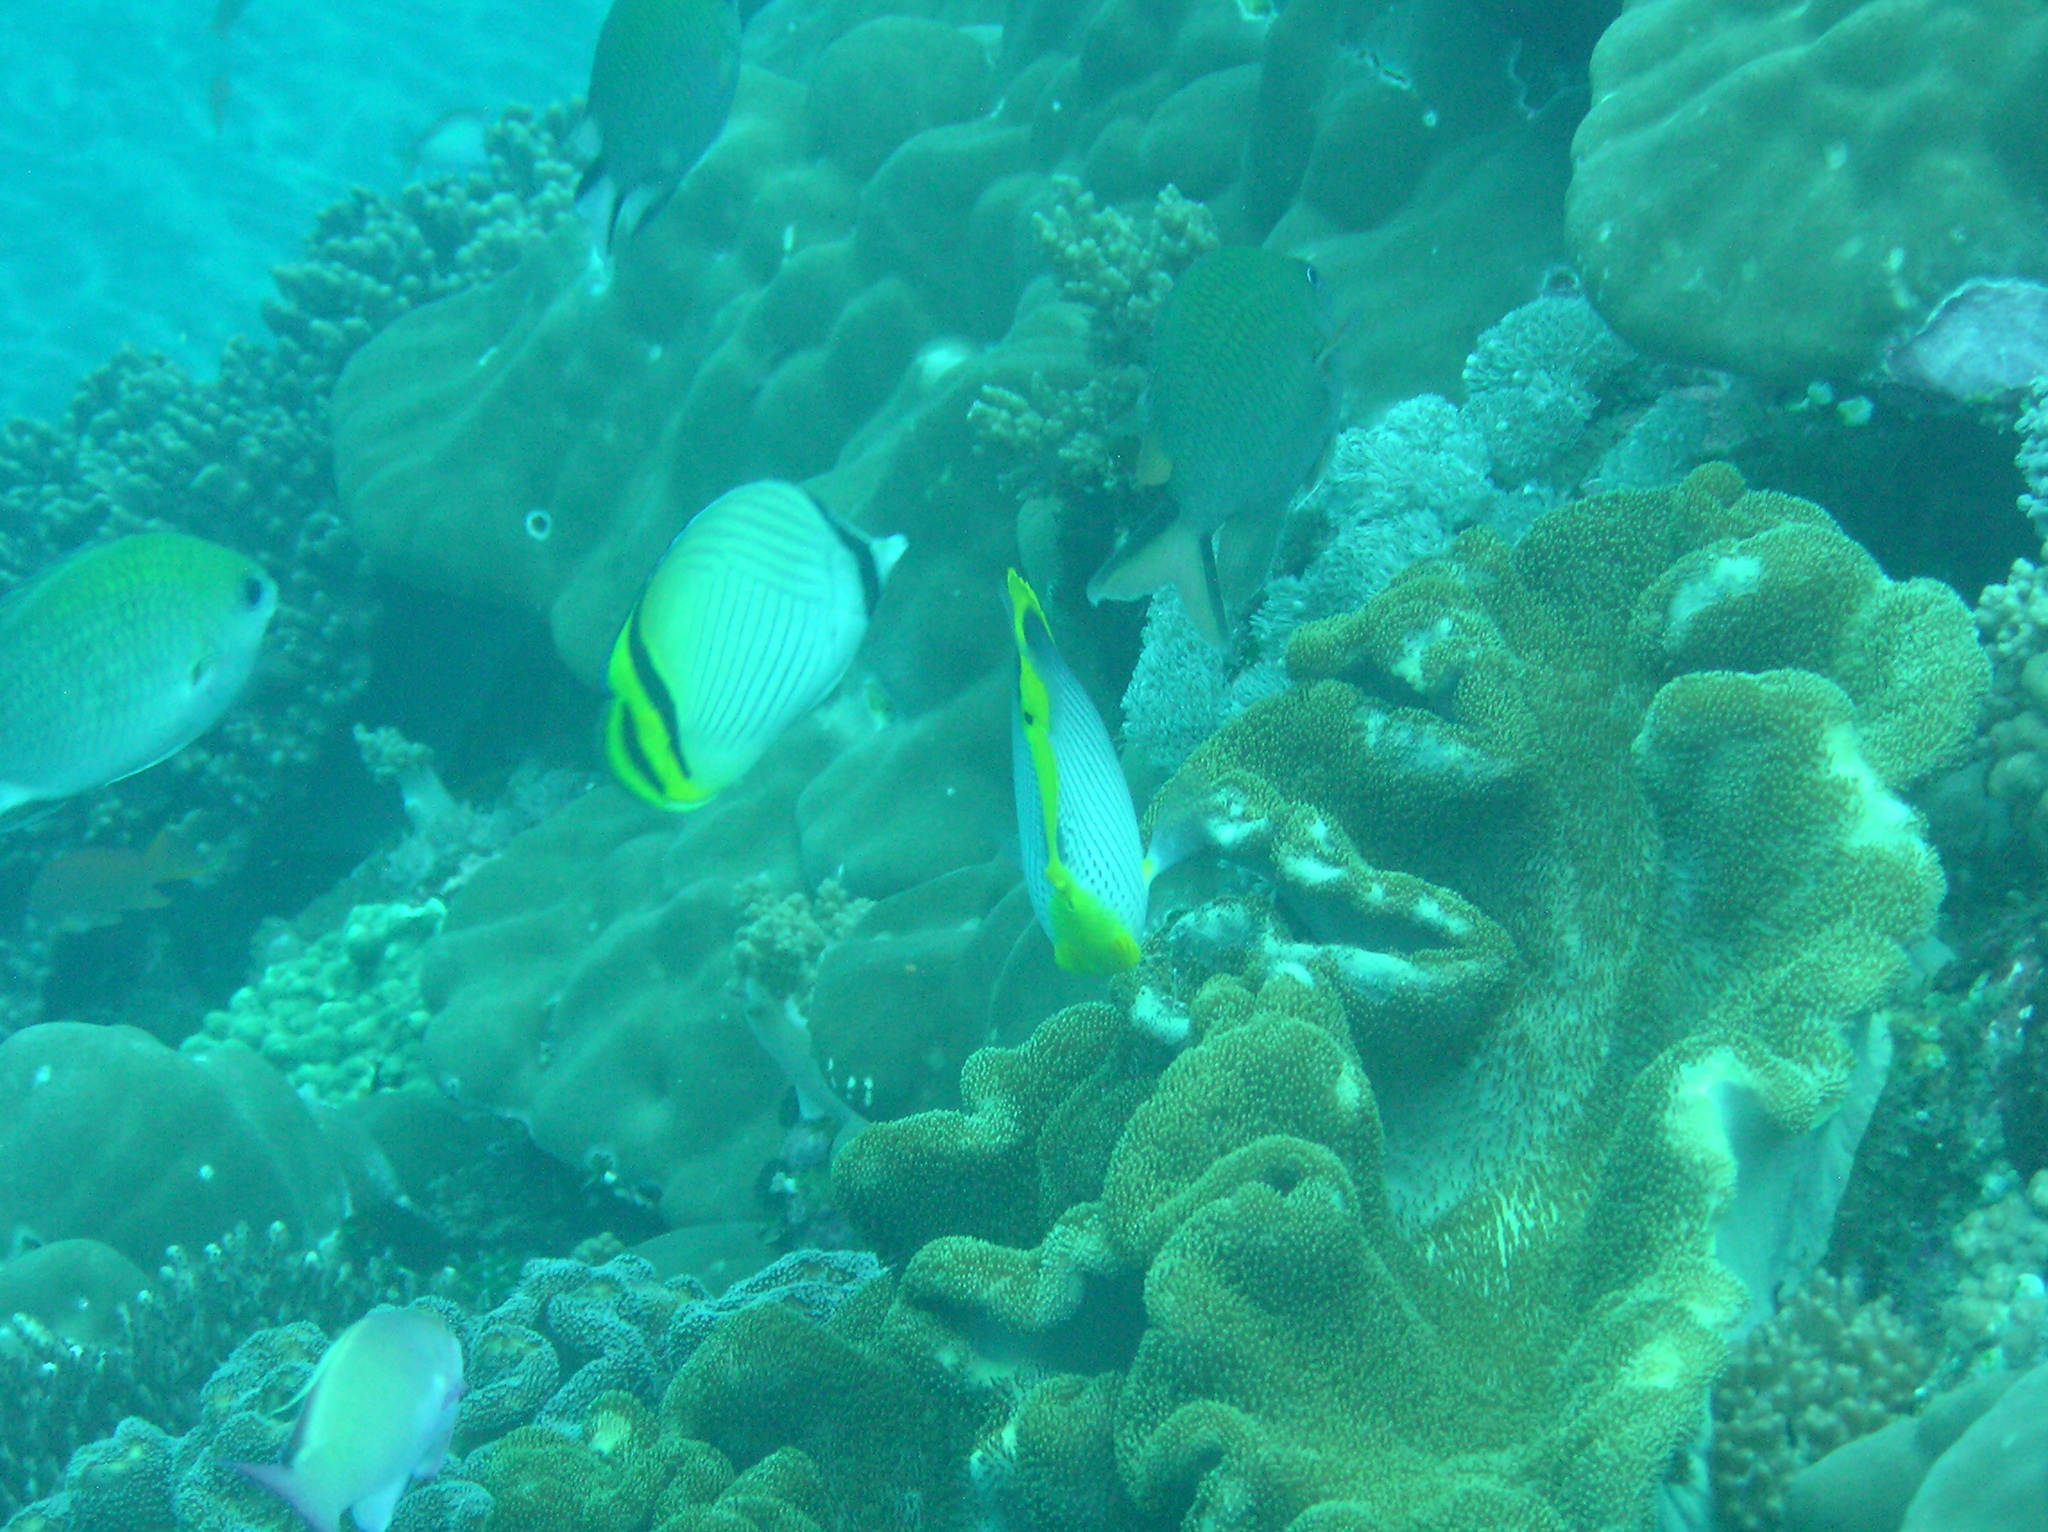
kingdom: Animalia
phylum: Chordata
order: Perciformes
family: Chaetodontidae
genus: Chaetodon
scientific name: Chaetodon vagabundus
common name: Vagabond butterflyfish
